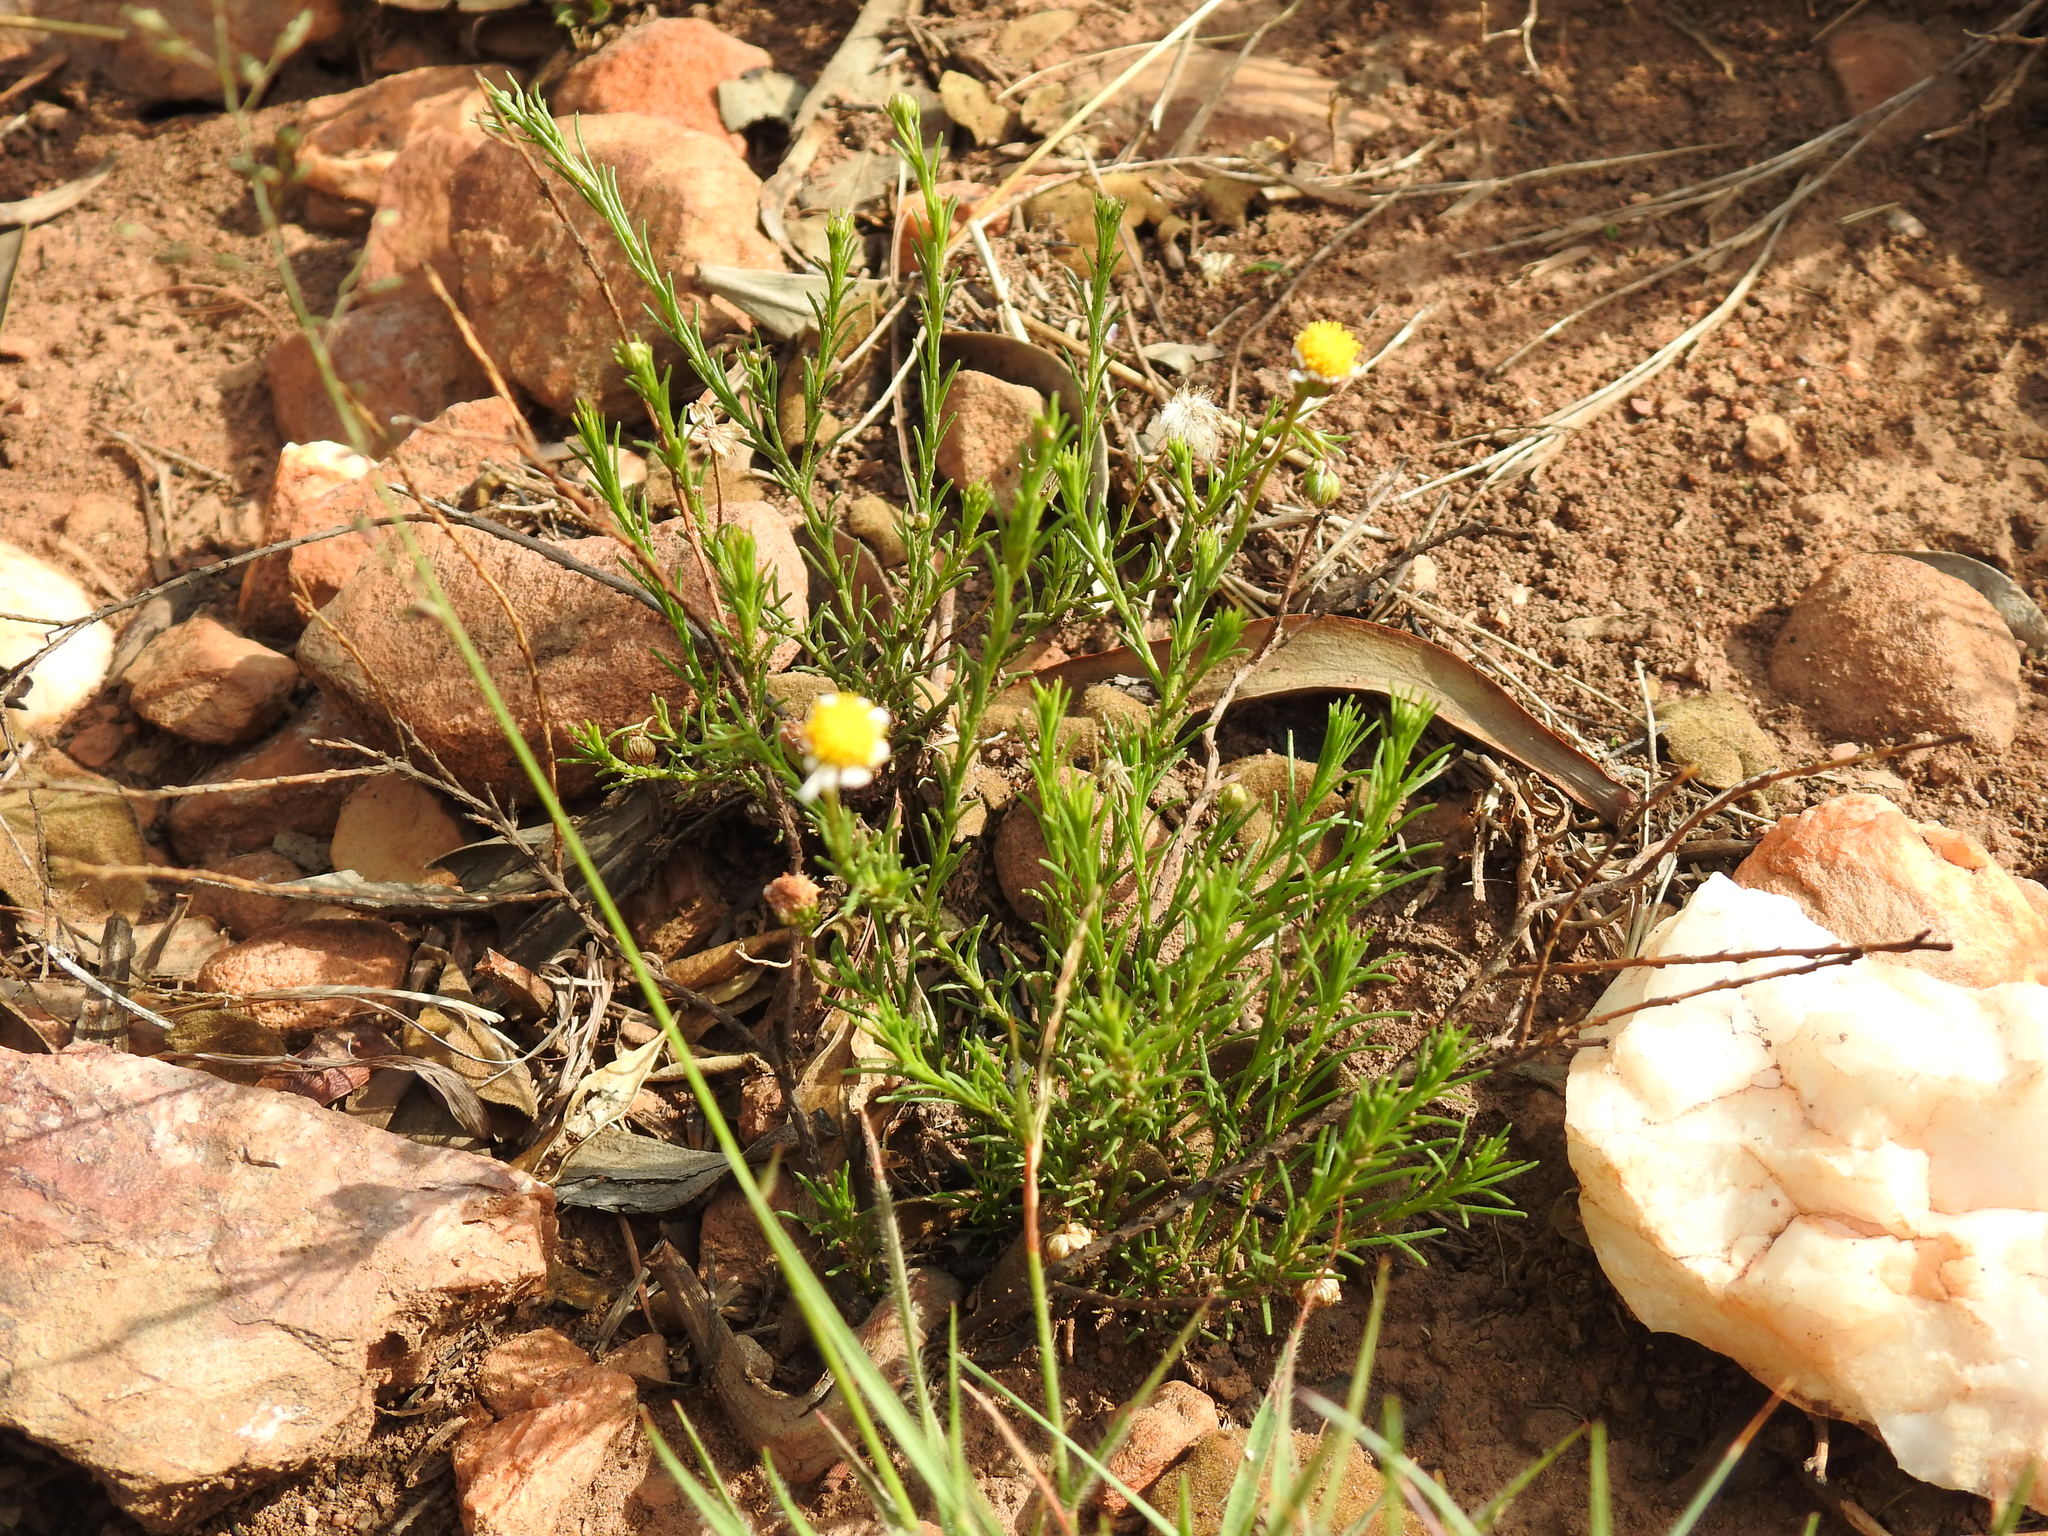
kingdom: Plantae
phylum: Tracheophyta
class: Magnoliopsida
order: Asterales
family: Asteraceae
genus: Felicia
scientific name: Felicia muricata
